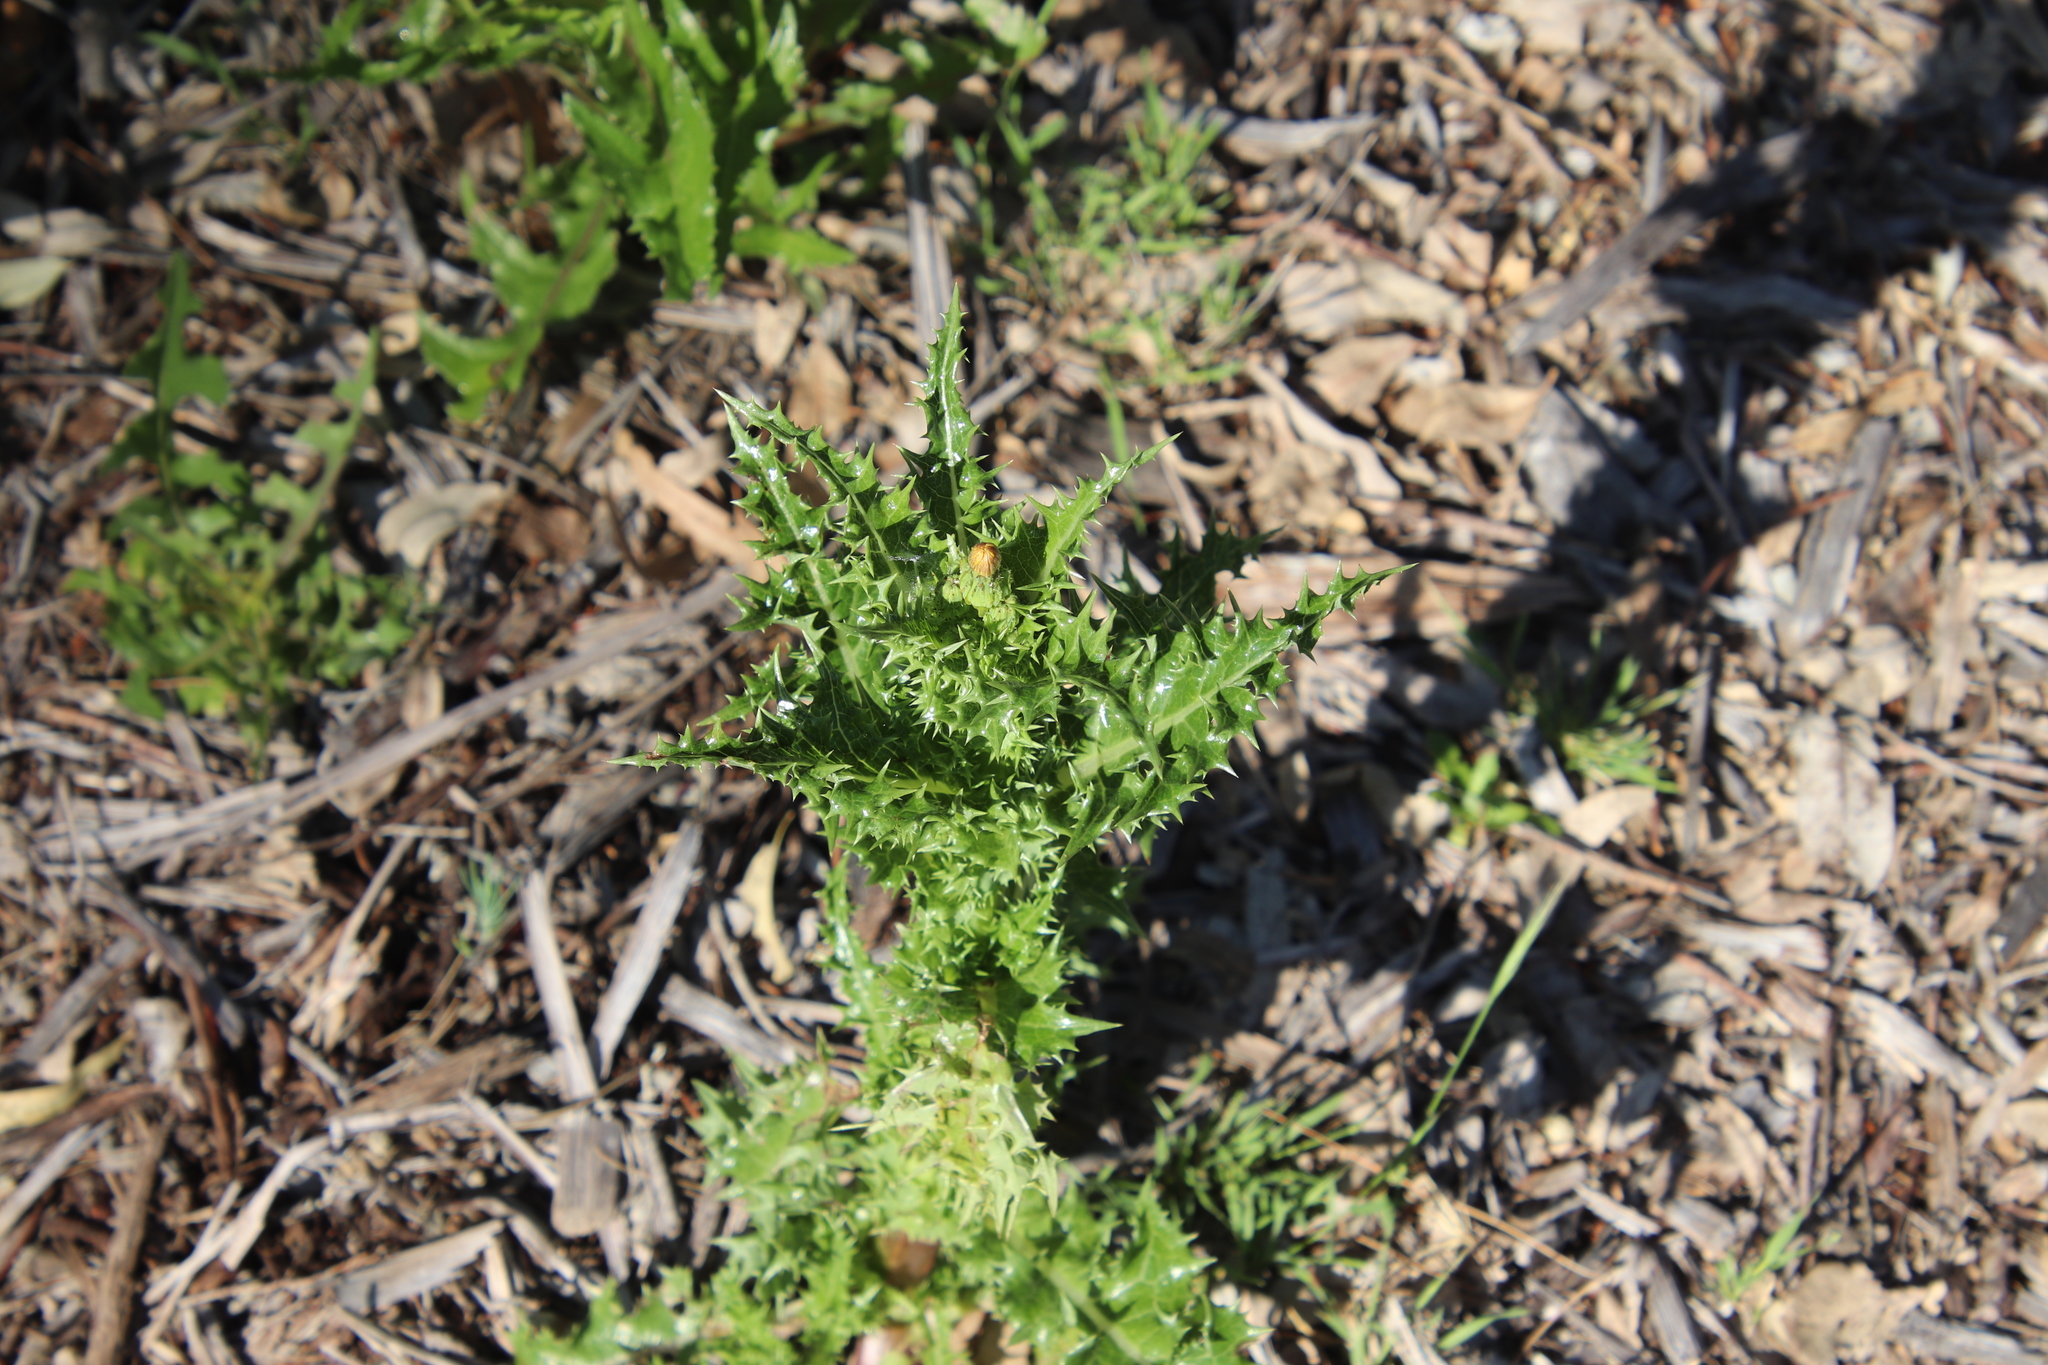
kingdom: Plantae
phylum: Tracheophyta
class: Magnoliopsida
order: Asterales
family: Asteraceae
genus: Sonchus
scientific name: Sonchus asper
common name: Prickly sow-thistle
